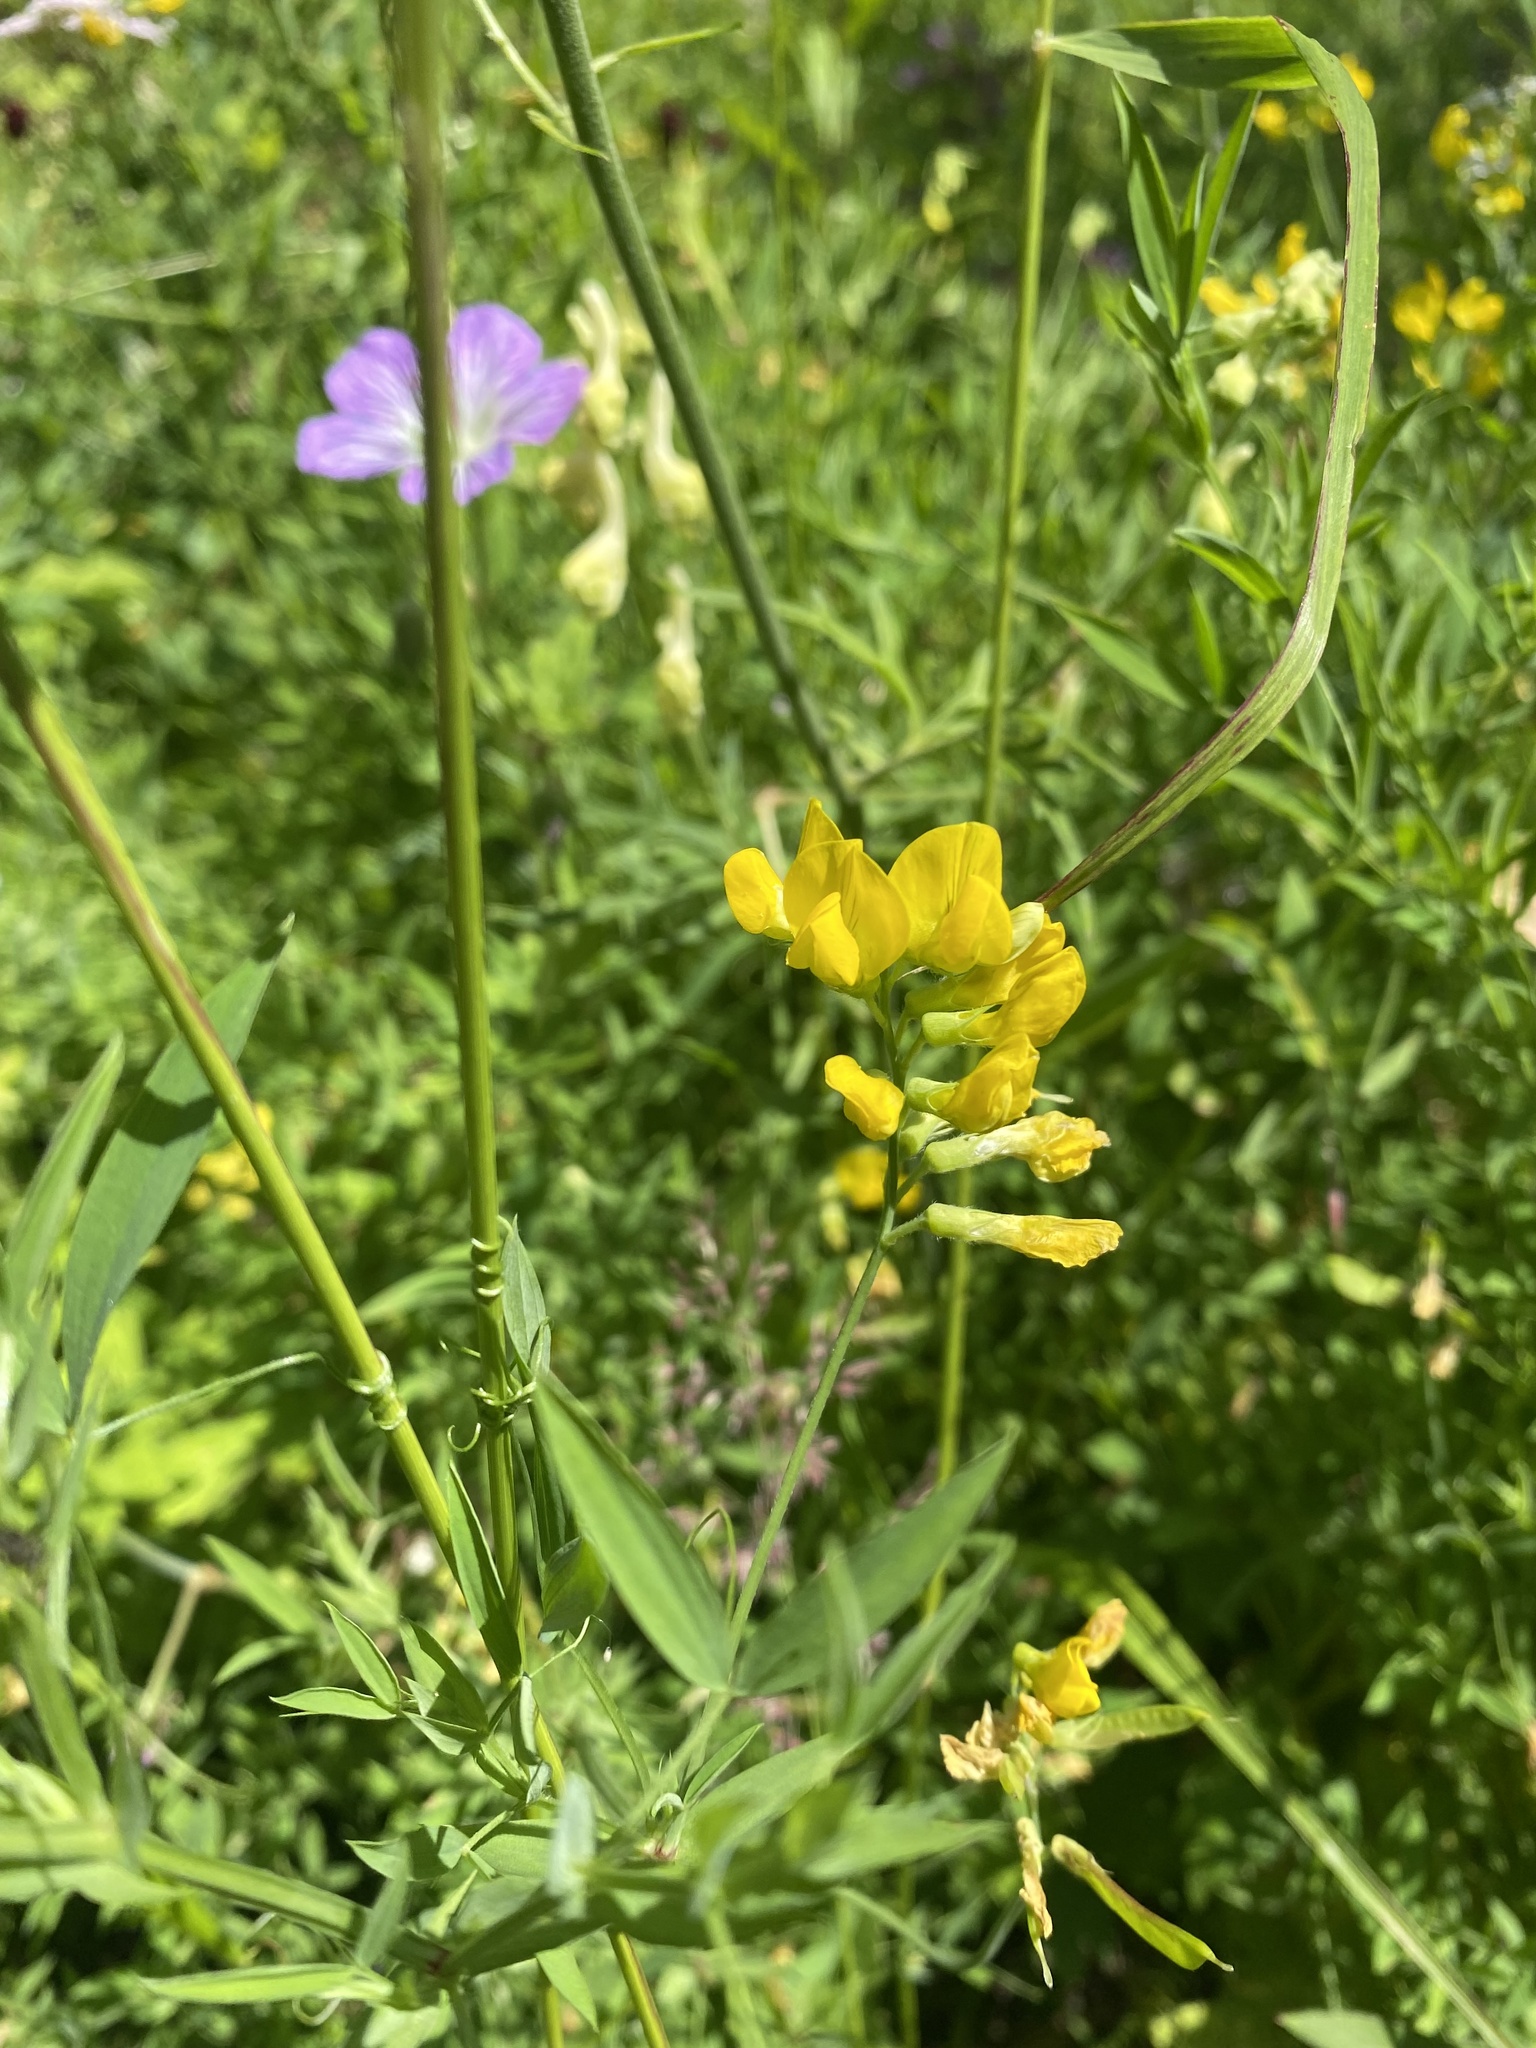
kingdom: Plantae
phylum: Tracheophyta
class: Magnoliopsida
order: Fabales
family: Fabaceae
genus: Lathyrus
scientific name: Lathyrus pratensis
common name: Meadow vetchling
